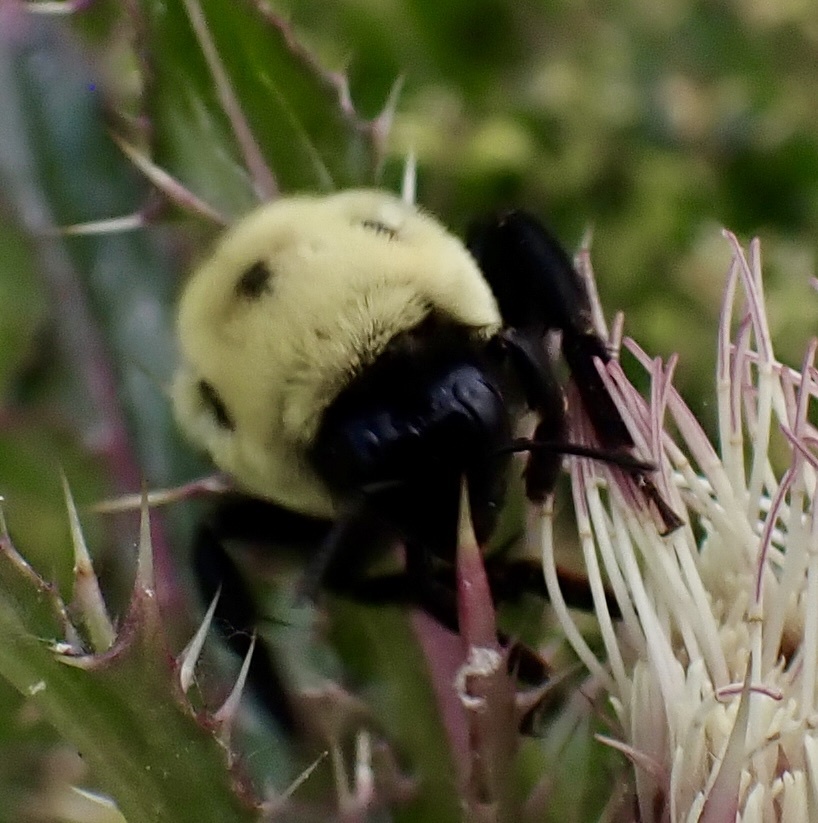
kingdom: Animalia
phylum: Arthropoda
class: Insecta
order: Hymenoptera
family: Apidae
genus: Bombus
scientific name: Bombus griseocollis
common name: Brown-belted bumble bee
